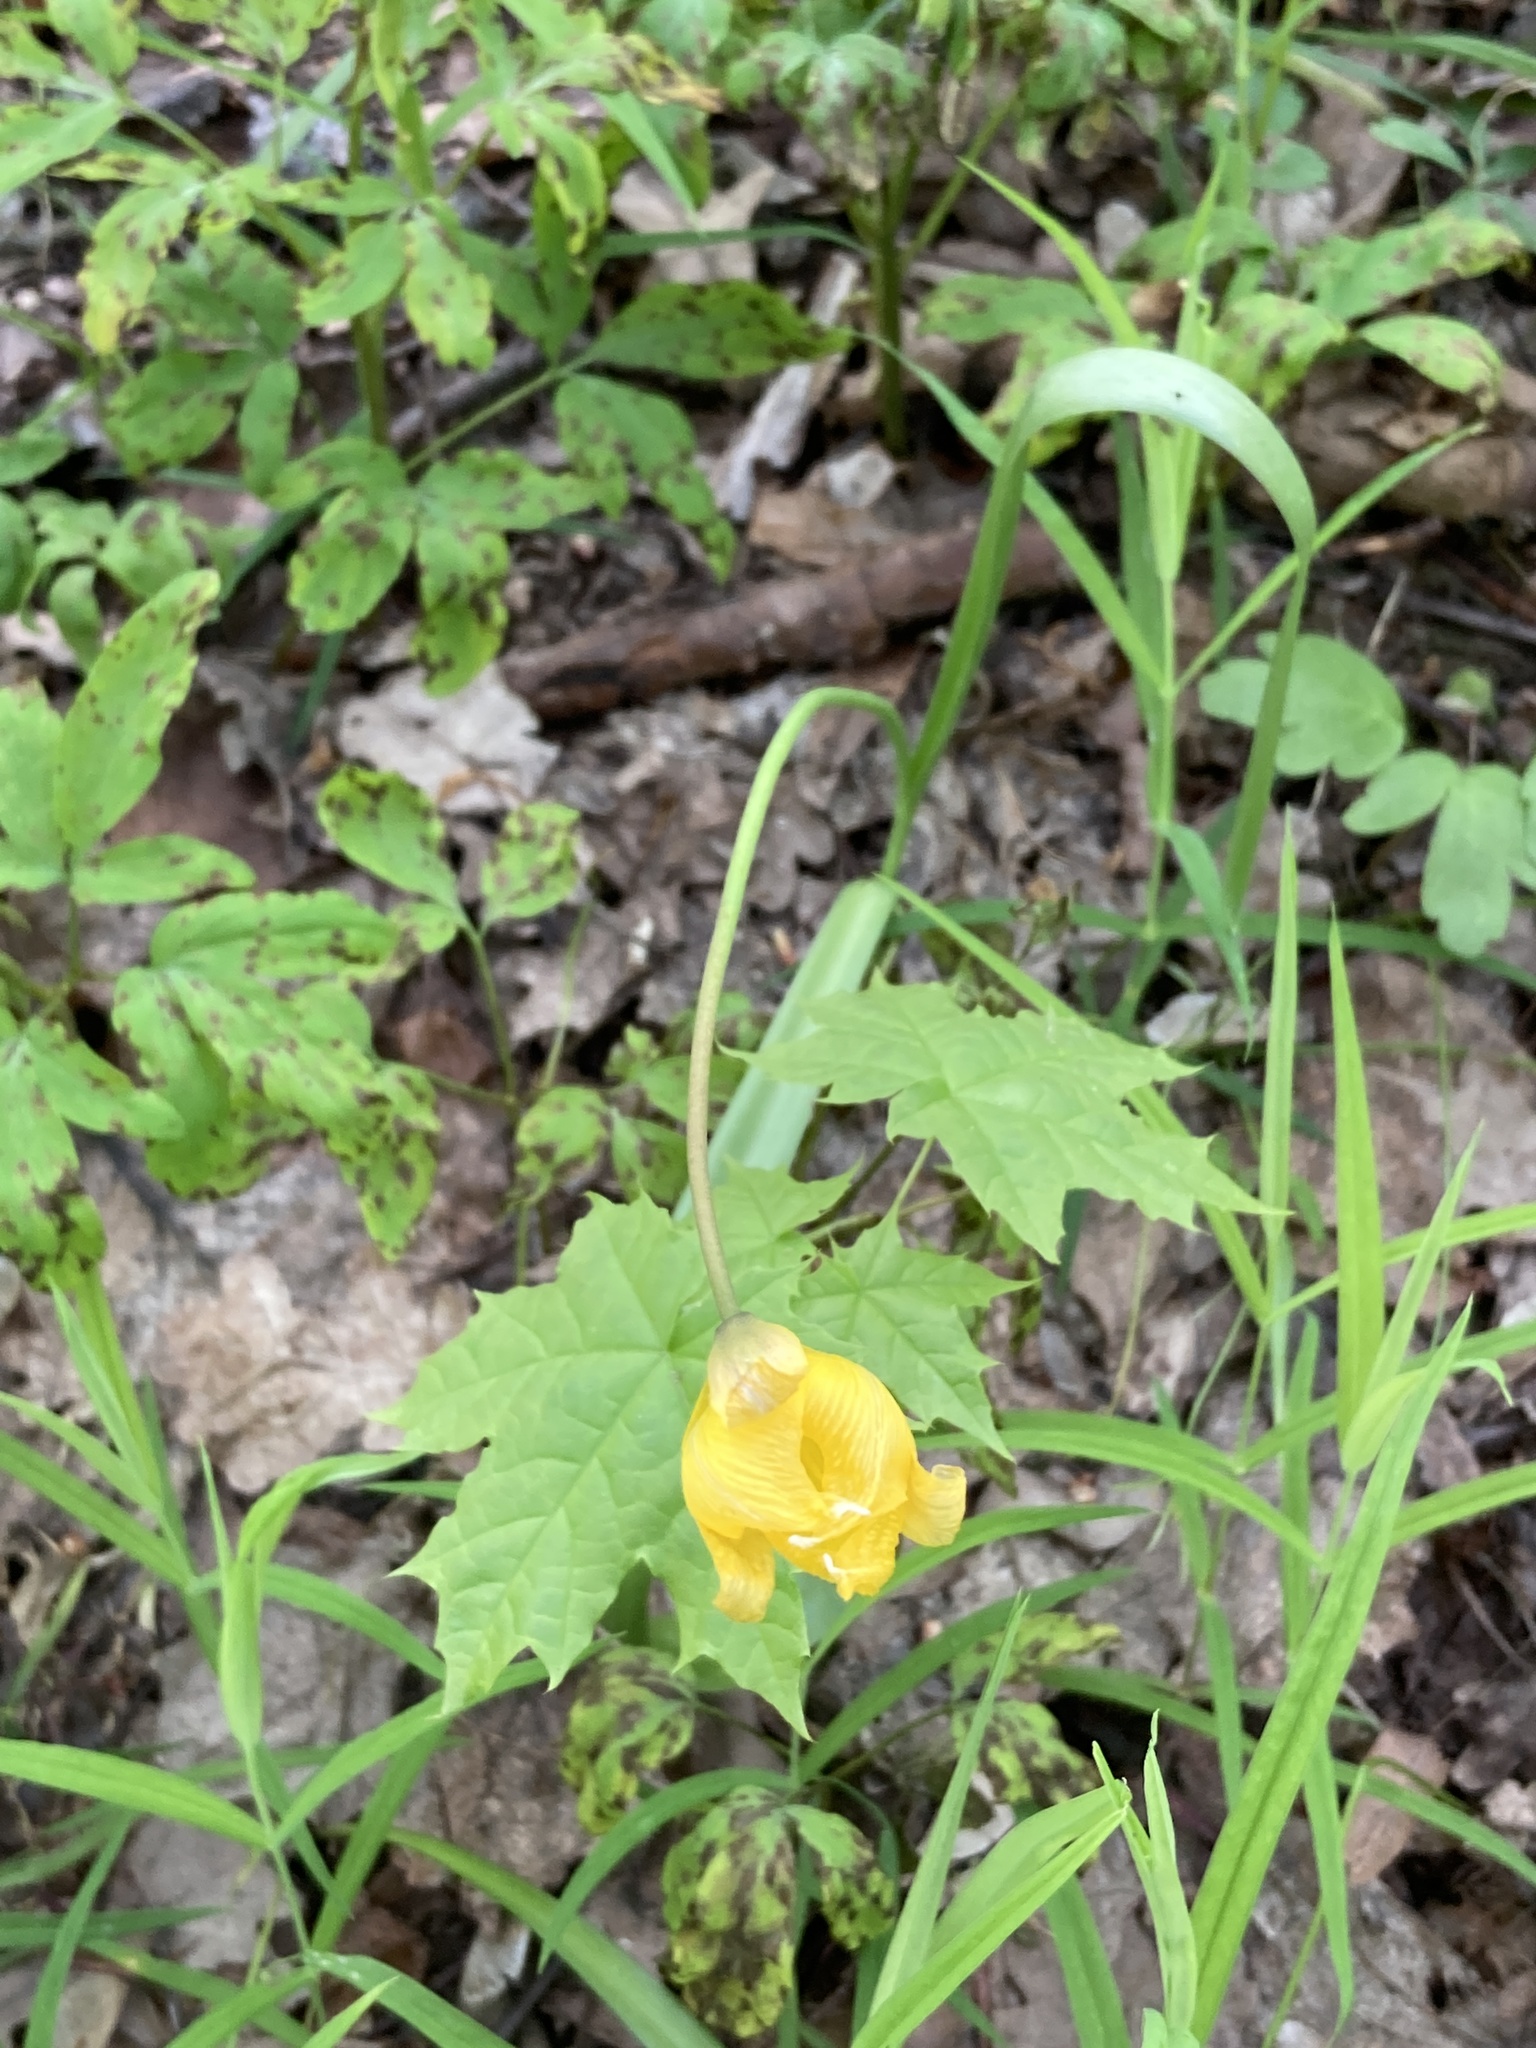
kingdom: Plantae
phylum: Tracheophyta
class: Liliopsida
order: Liliales
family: Liliaceae
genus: Tulipa
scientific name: Tulipa sylvestris
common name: Wild tulip
